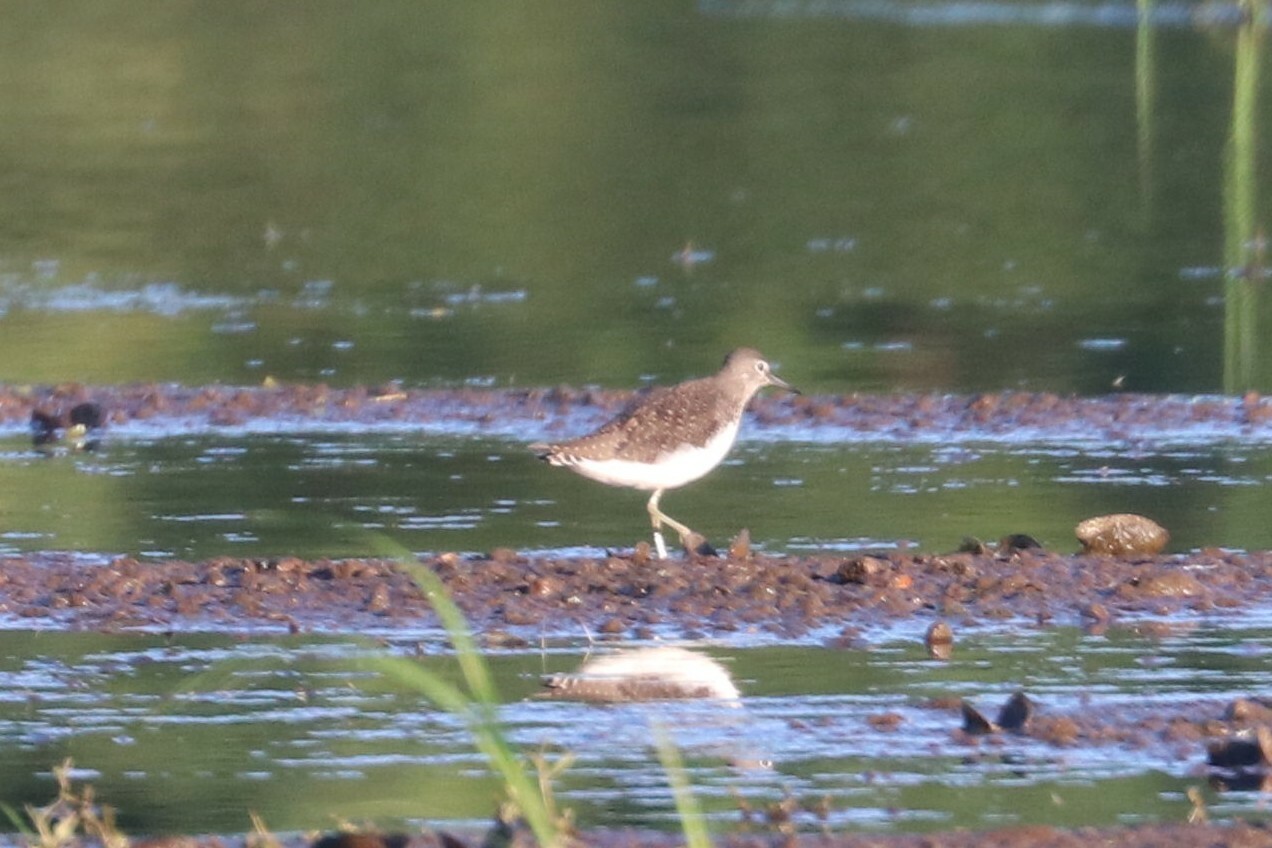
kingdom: Animalia
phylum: Chordata
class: Aves
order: Charadriiformes
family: Scolopacidae
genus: Tringa
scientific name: Tringa ochropus
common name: Green sandpiper
